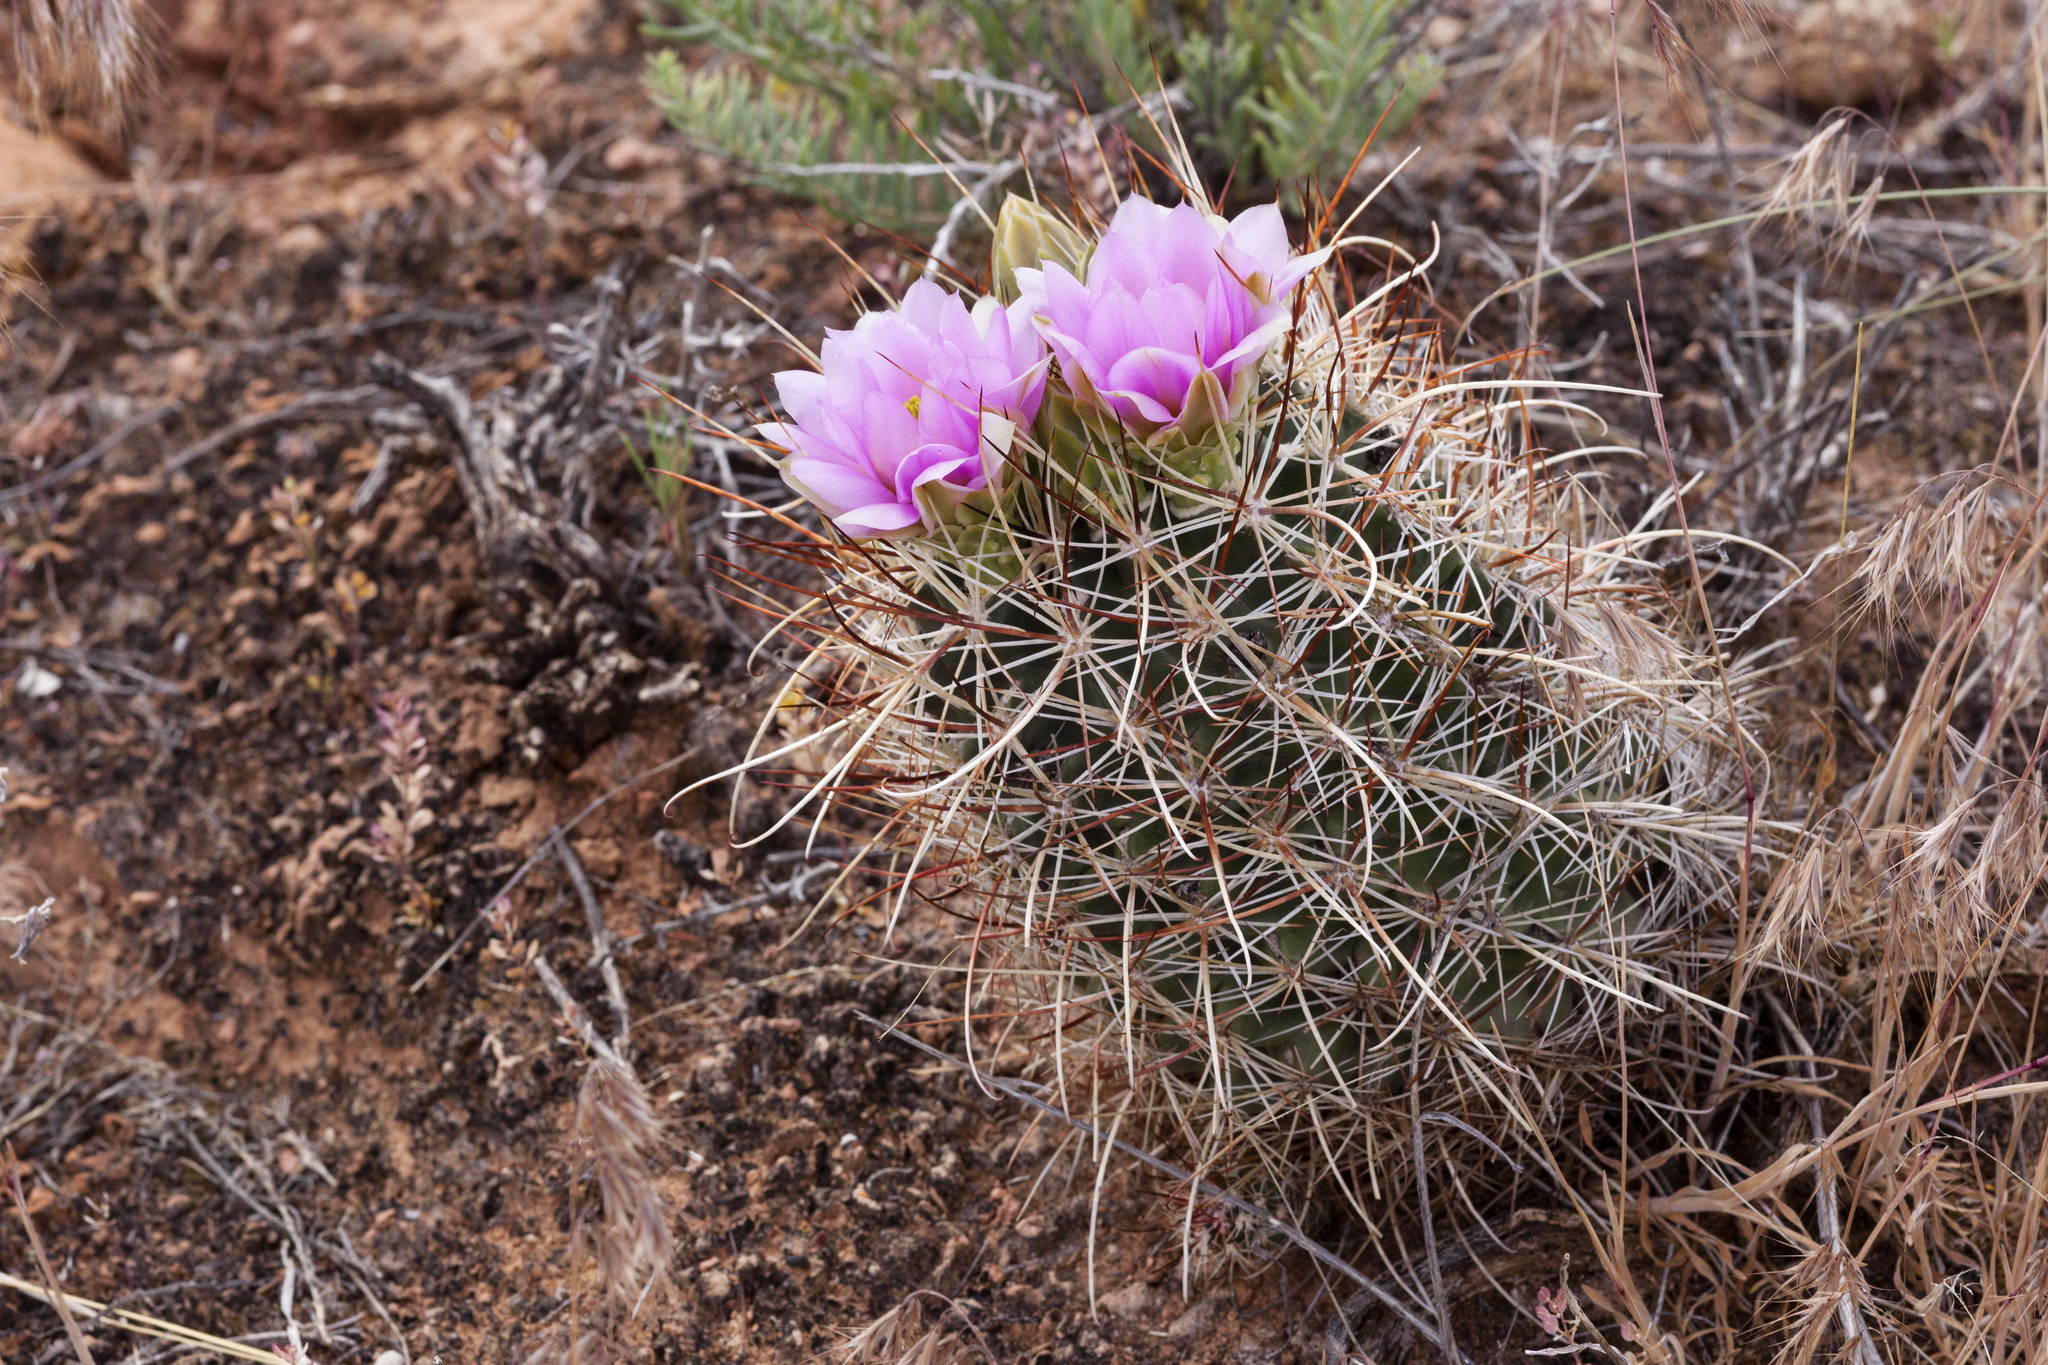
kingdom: Plantae
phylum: Tracheophyta
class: Magnoliopsida
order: Caryophyllales
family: Cactaceae
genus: Sclerocactus
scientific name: Sclerocactus parviflorus
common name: Small-flower fishhook cactus
